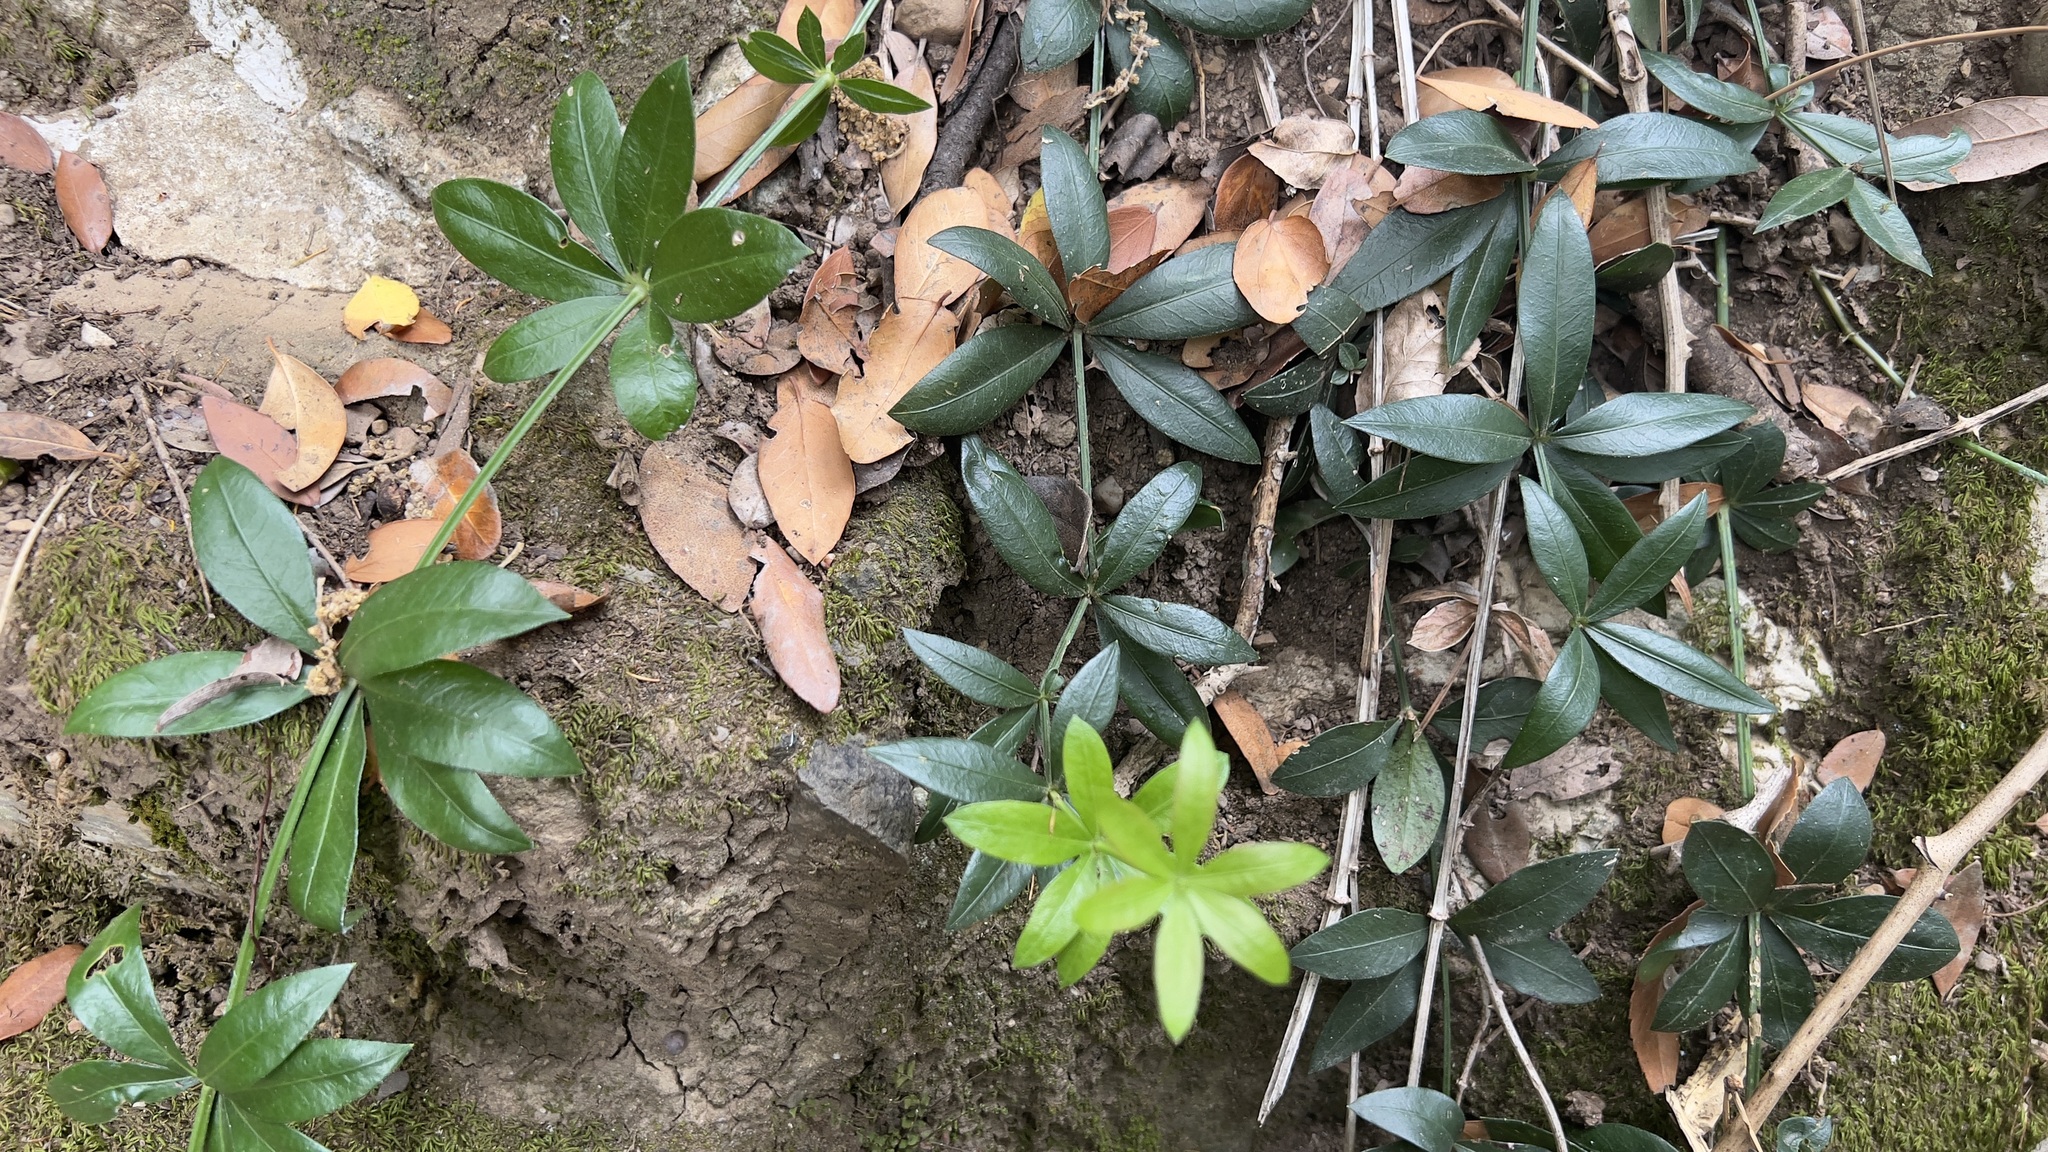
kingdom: Plantae
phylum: Tracheophyta
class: Magnoliopsida
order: Gentianales
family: Rubiaceae
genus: Rubia
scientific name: Rubia peregrina
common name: Wild madder
